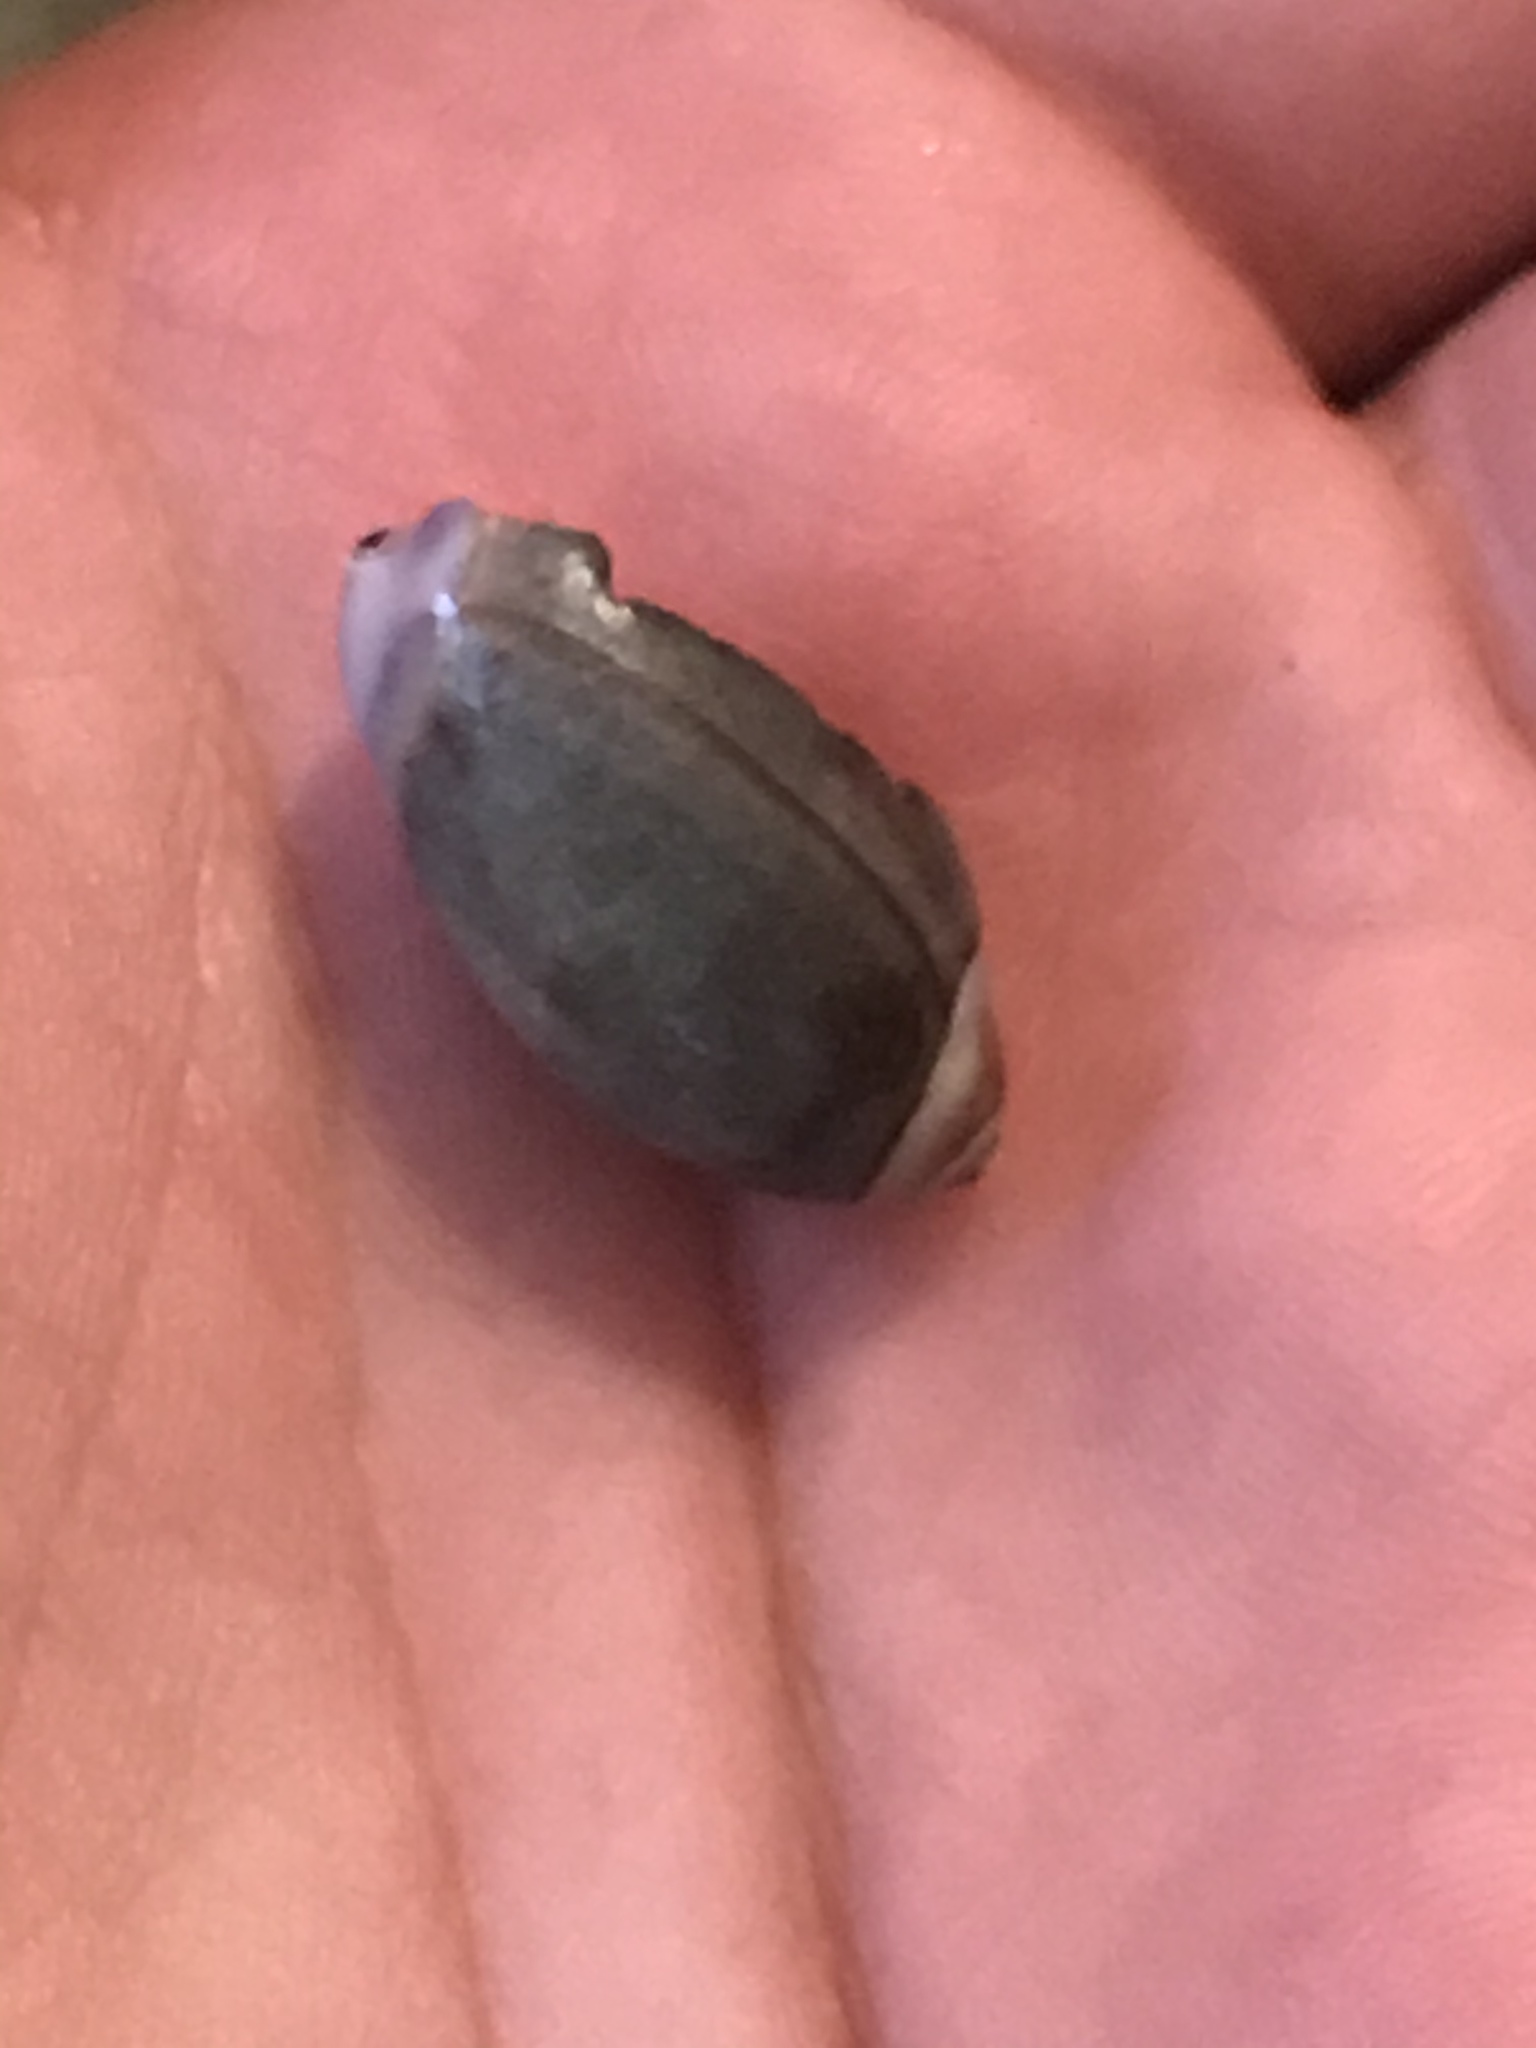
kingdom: Animalia
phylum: Mollusca
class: Gastropoda
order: Neogastropoda
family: Olividae
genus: Callianax
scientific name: Callianax biplicata
